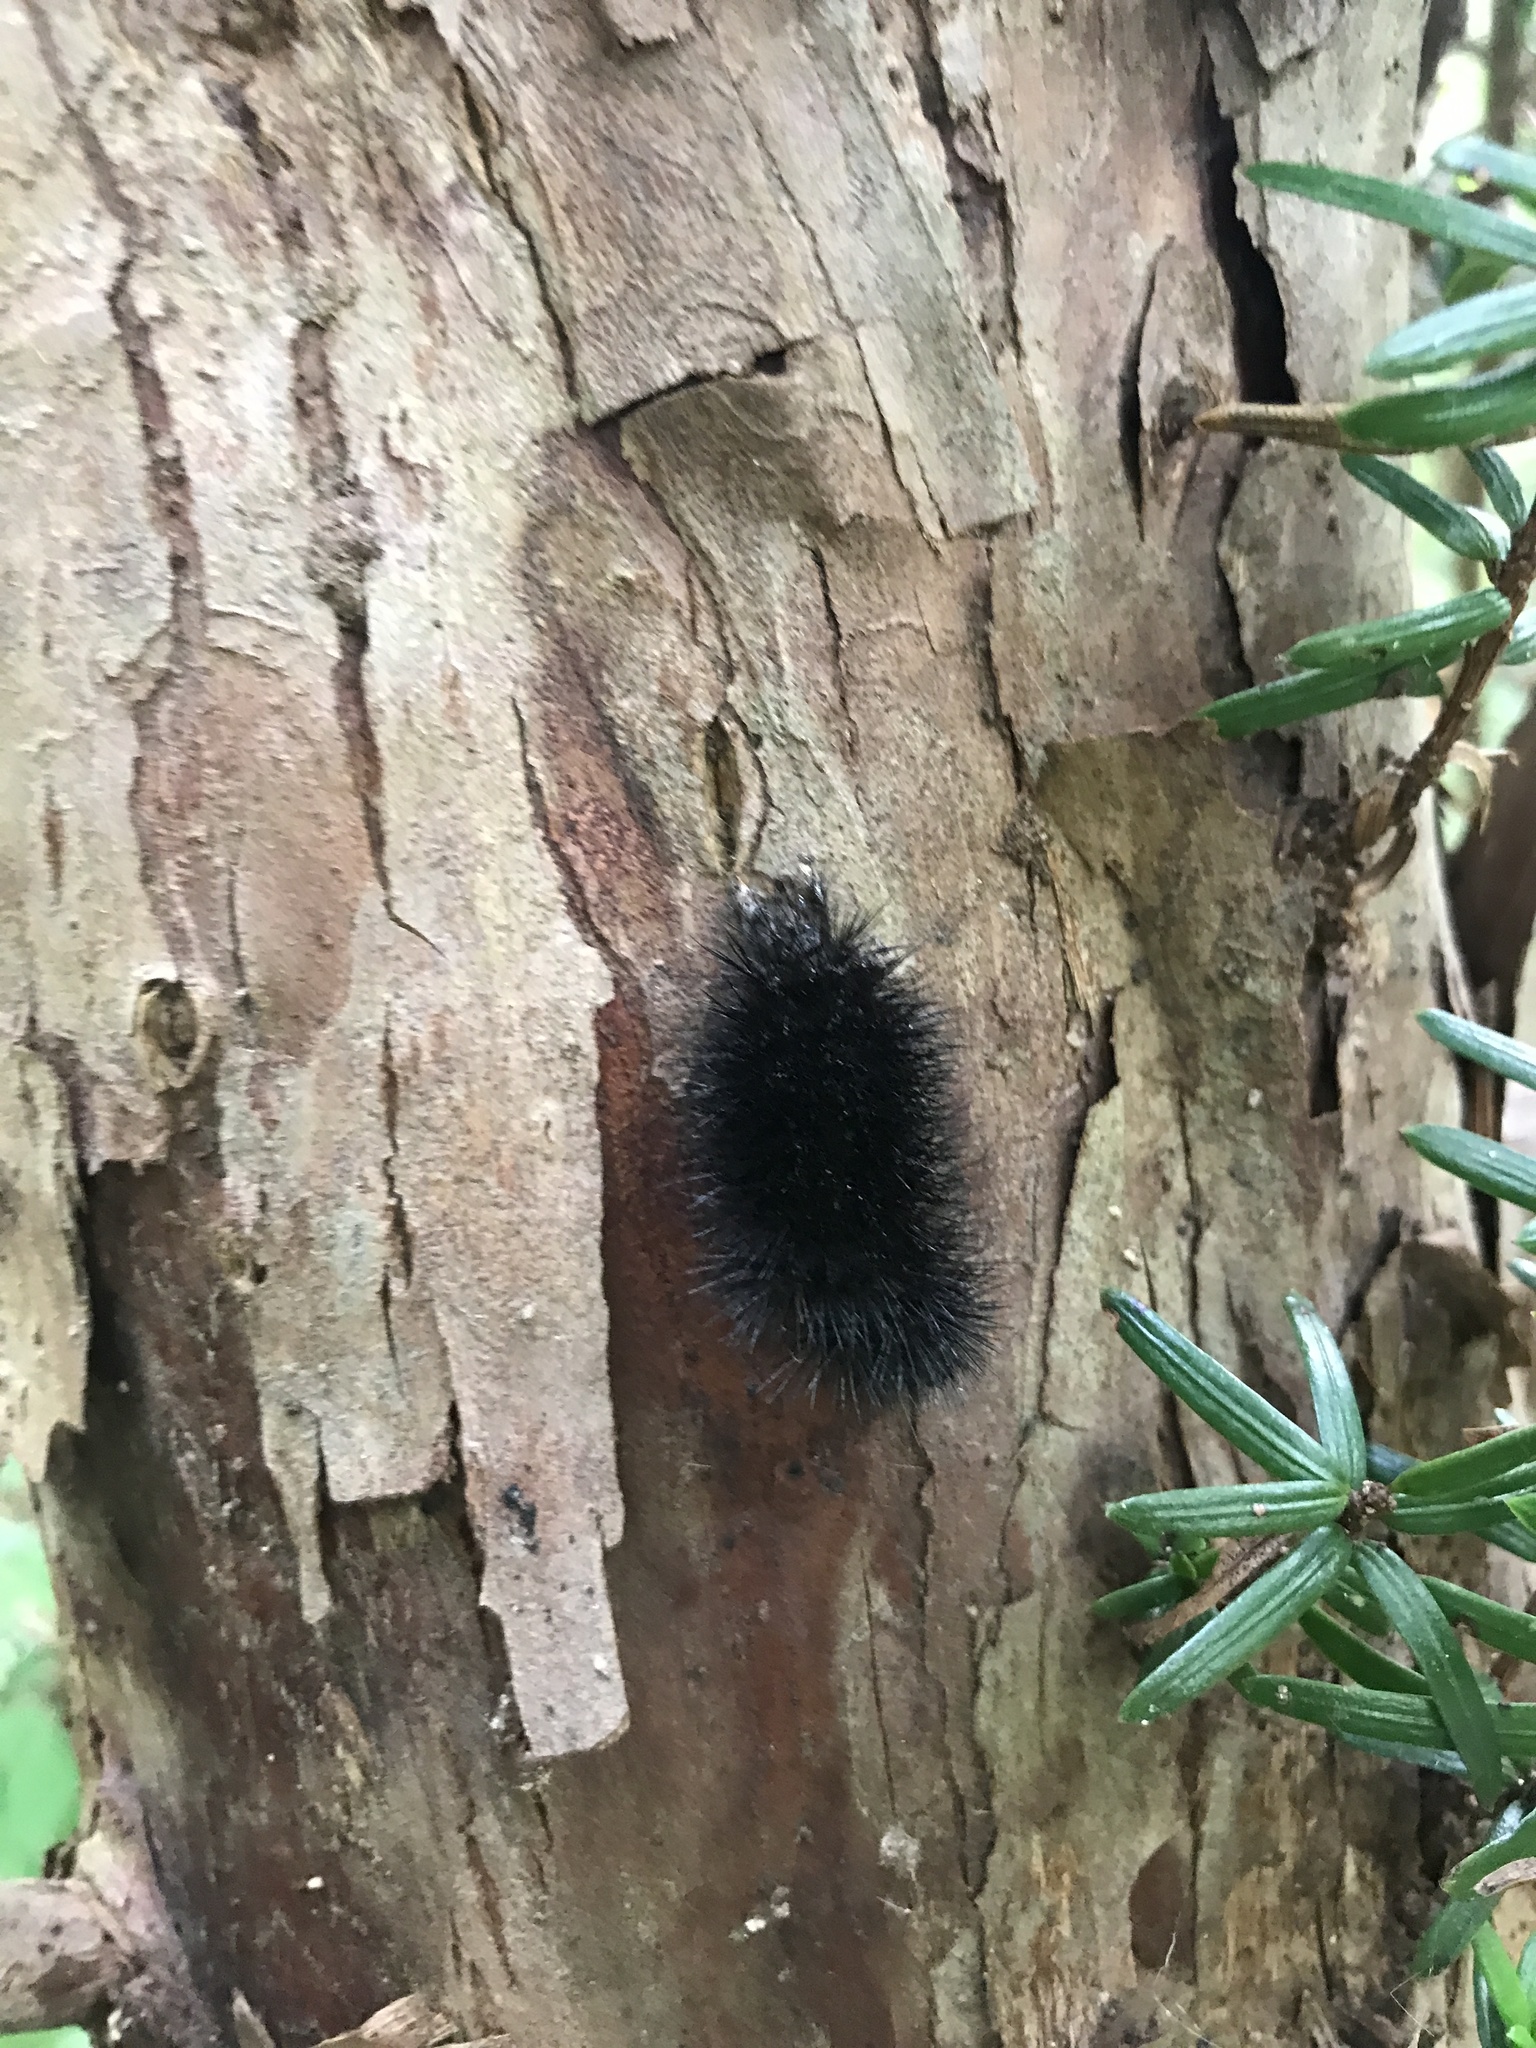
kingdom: Animalia
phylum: Arthropoda
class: Insecta
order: Lepidoptera
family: Erebidae
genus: Hypercompe
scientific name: Hypercompe scribonia
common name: Giant leopard moth
